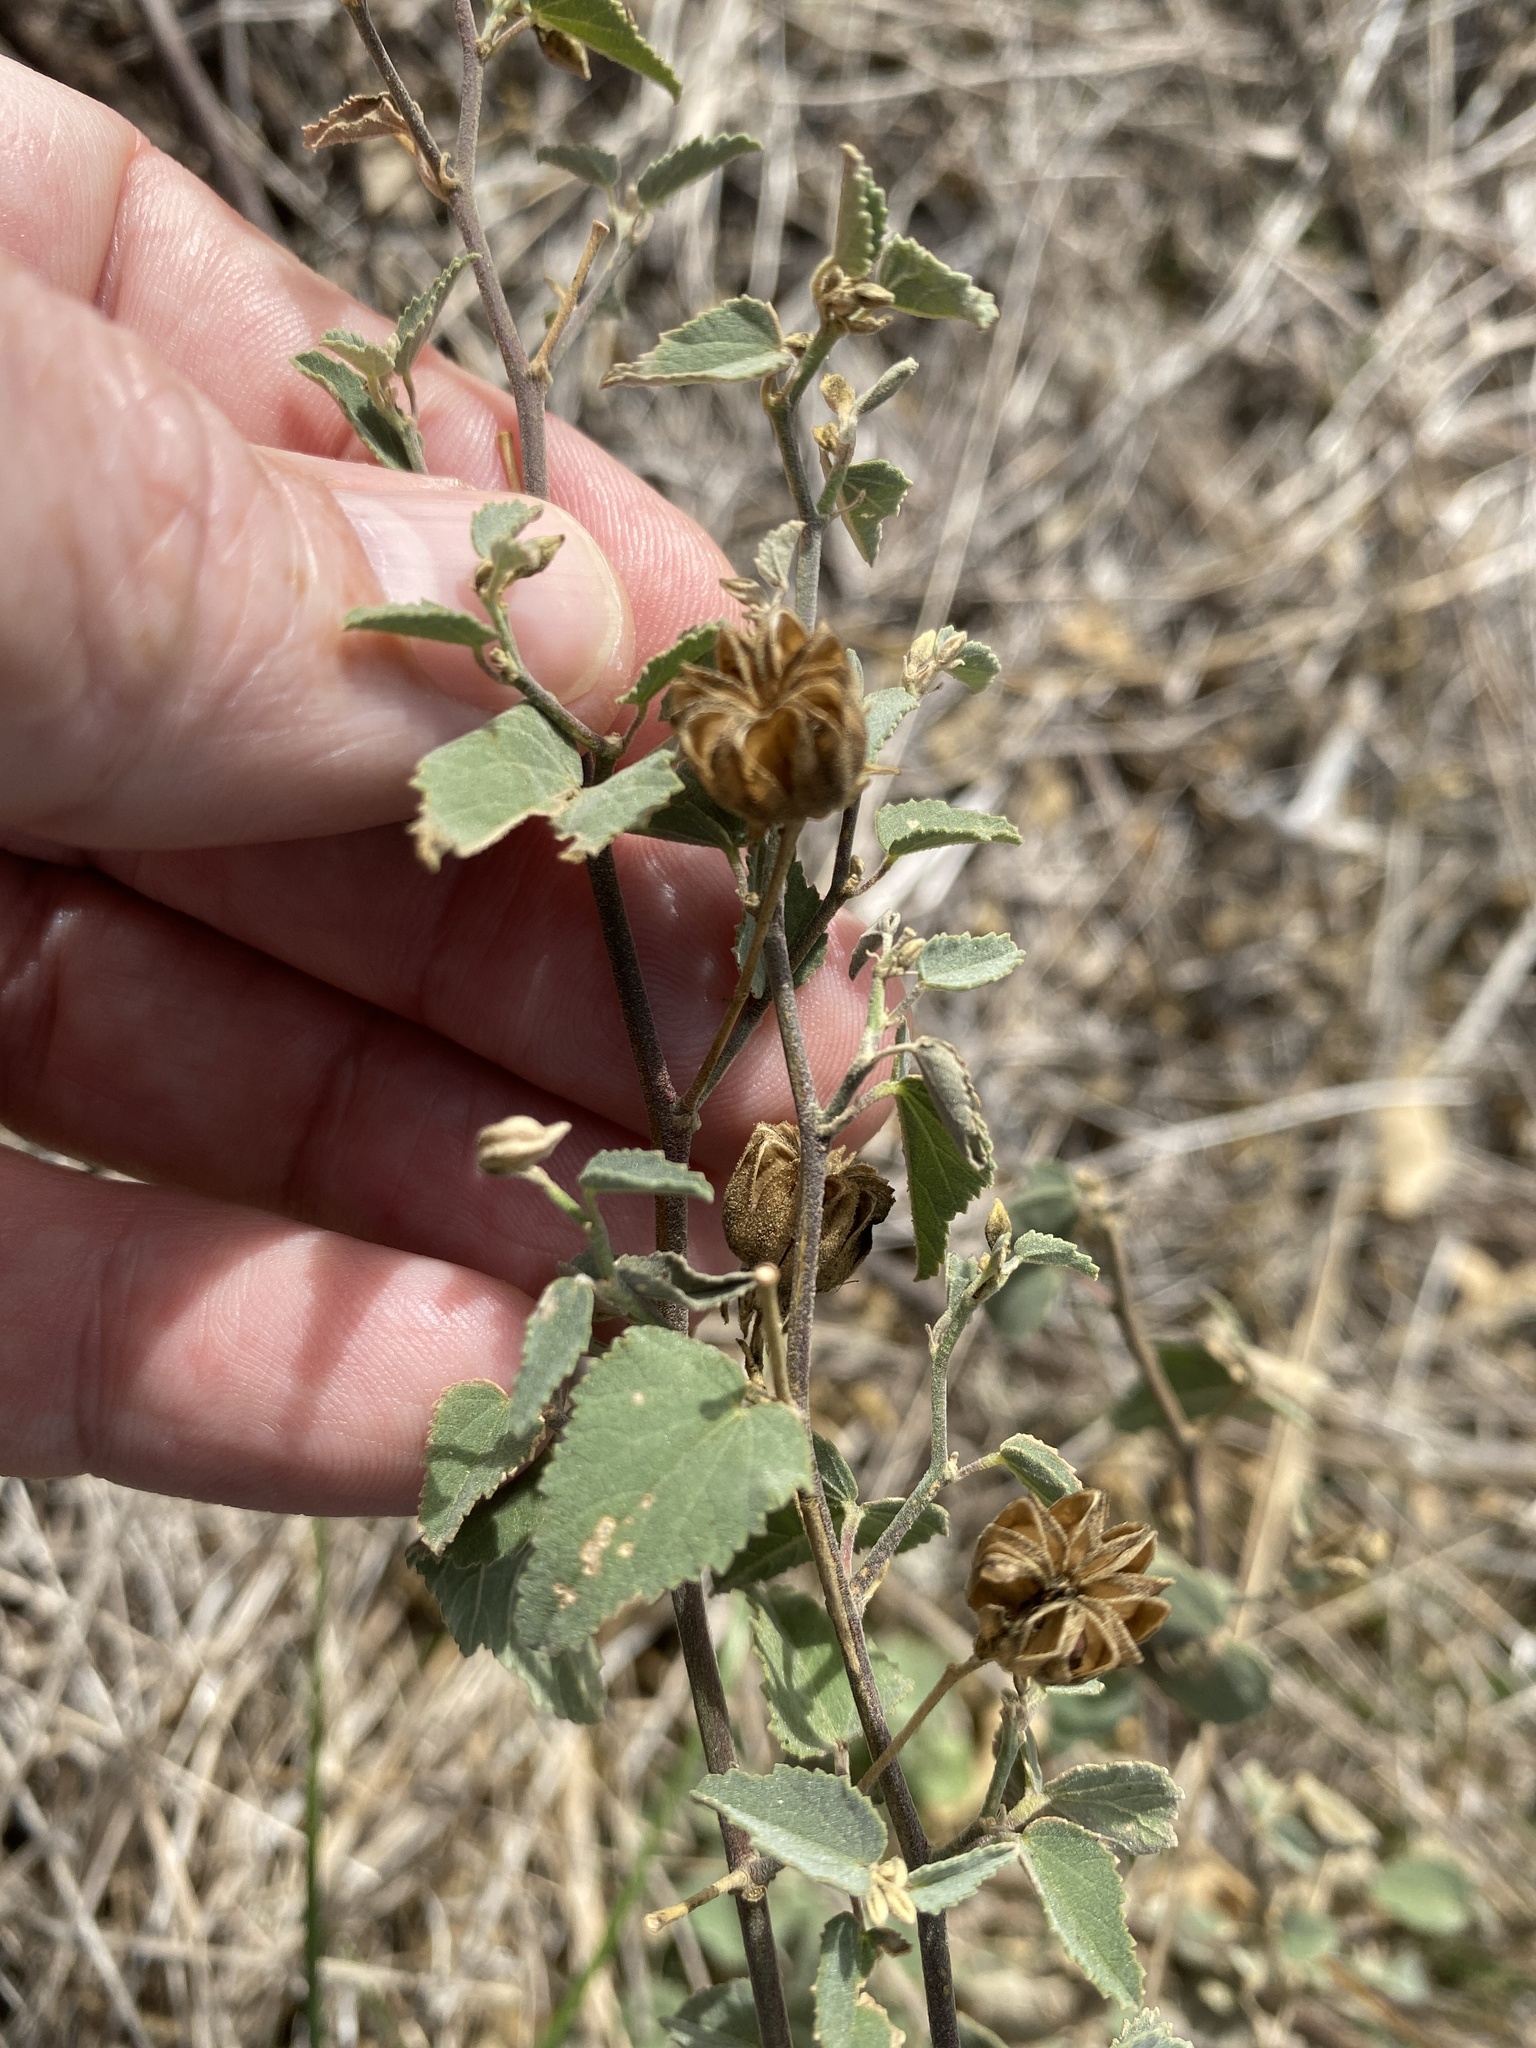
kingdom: Plantae
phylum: Tracheophyta
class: Magnoliopsida
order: Malvales
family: Malvaceae
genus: Abutilon
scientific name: Abutilon fruticosum
